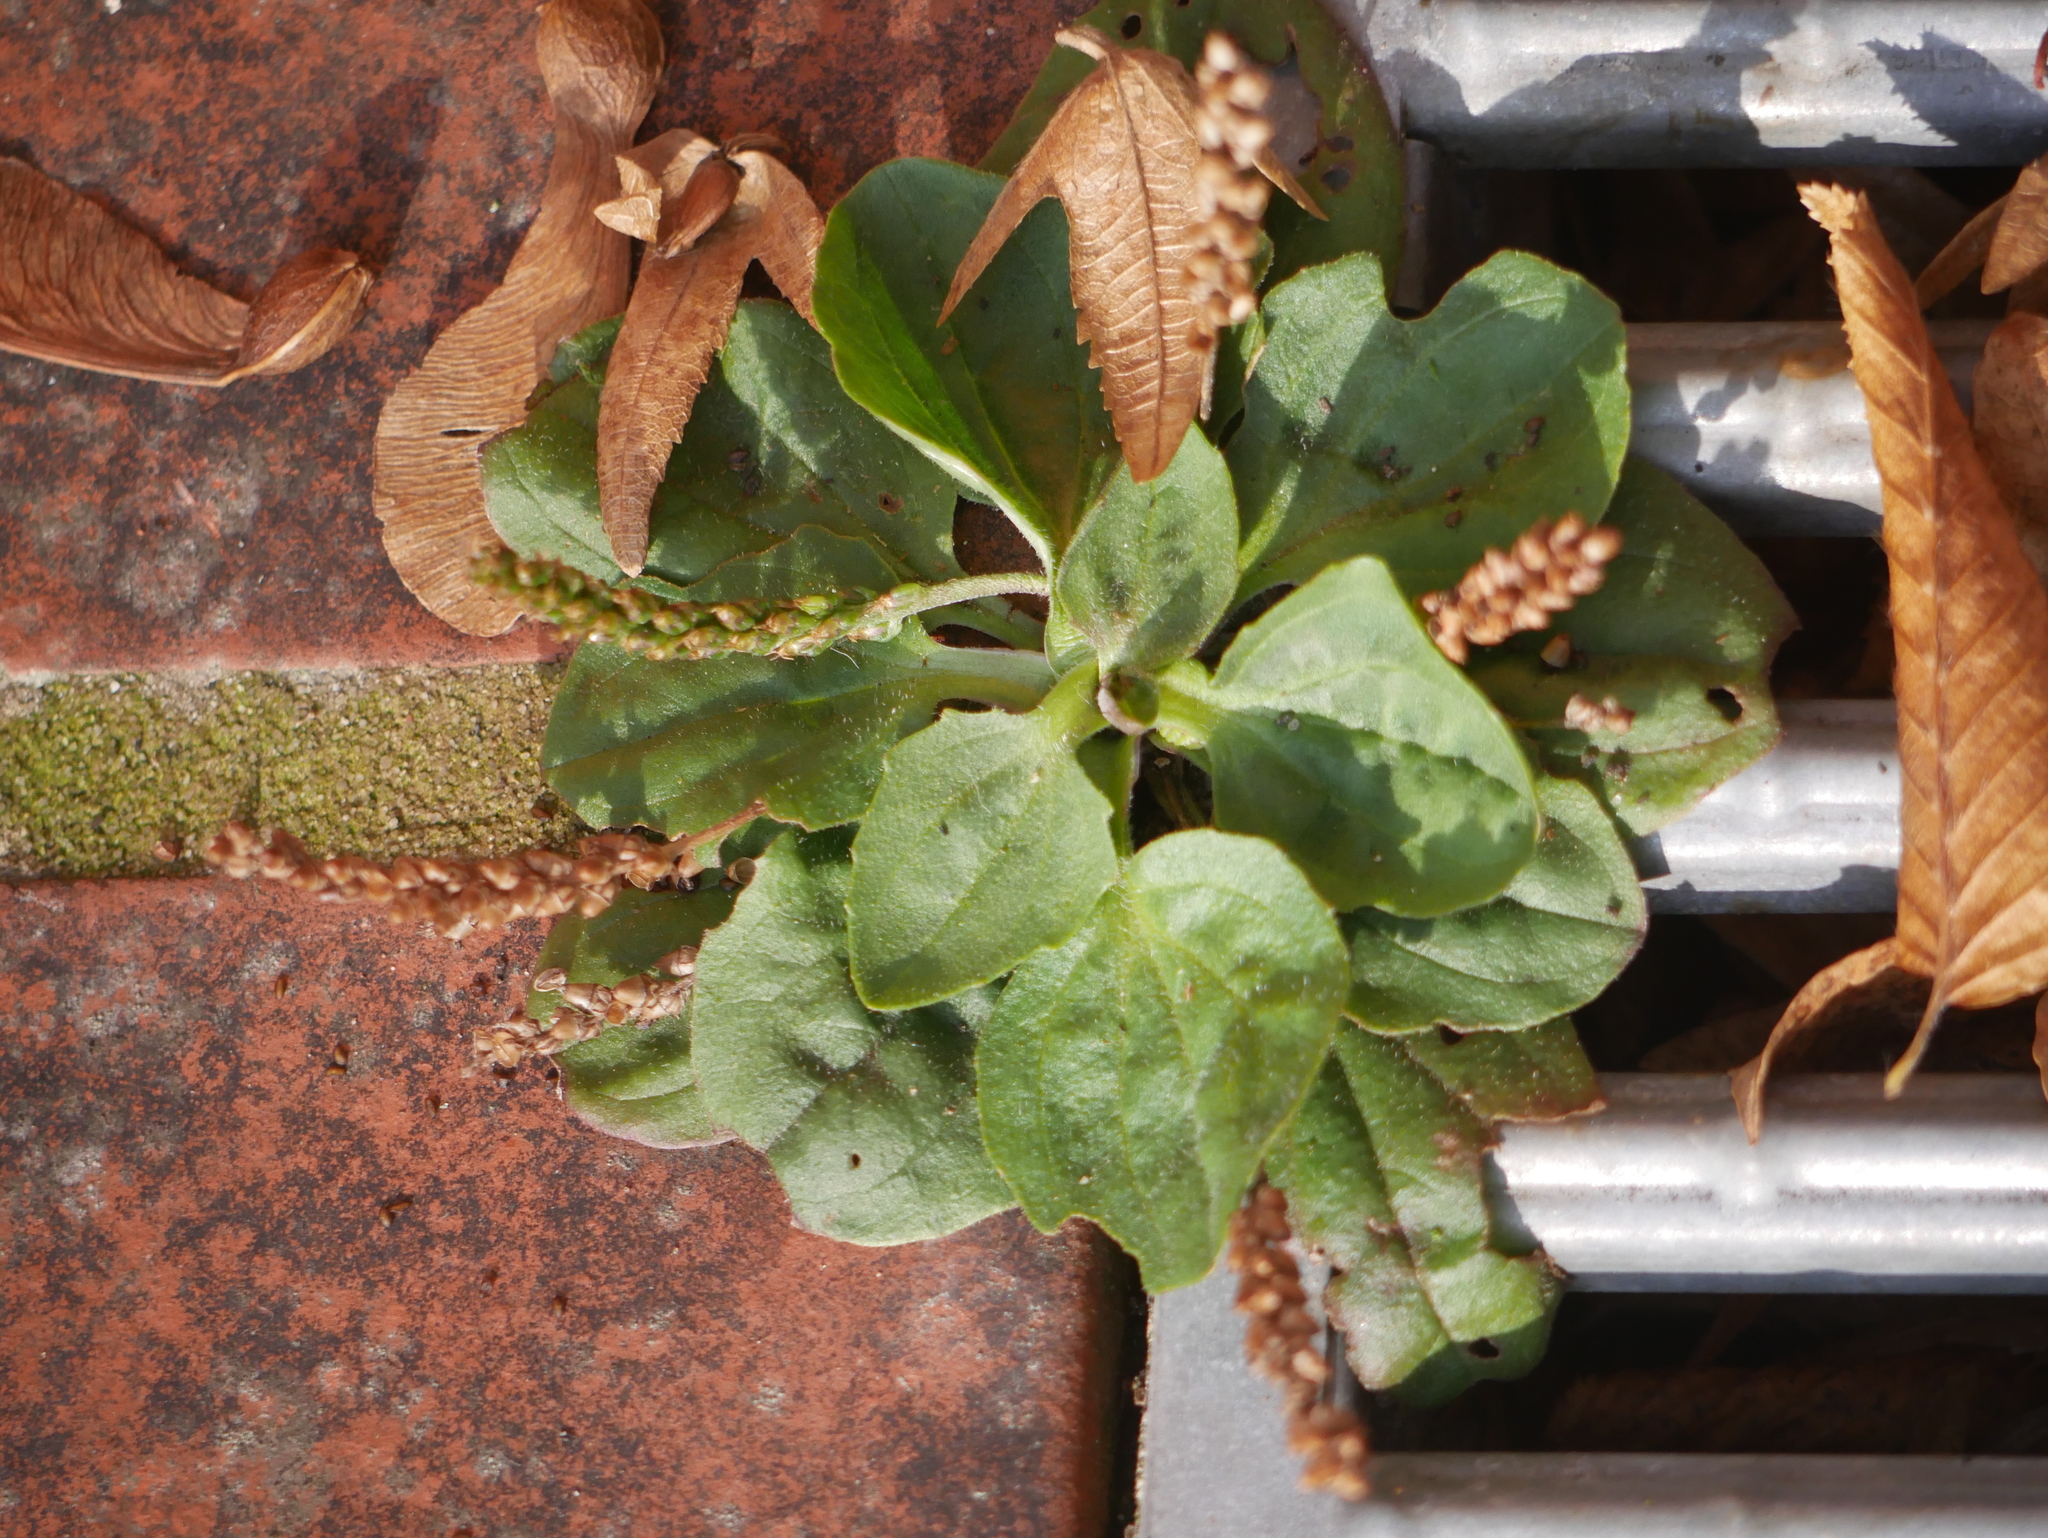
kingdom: Plantae
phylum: Tracheophyta
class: Magnoliopsida
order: Lamiales
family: Plantaginaceae
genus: Plantago
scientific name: Plantago major
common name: Common plantain
